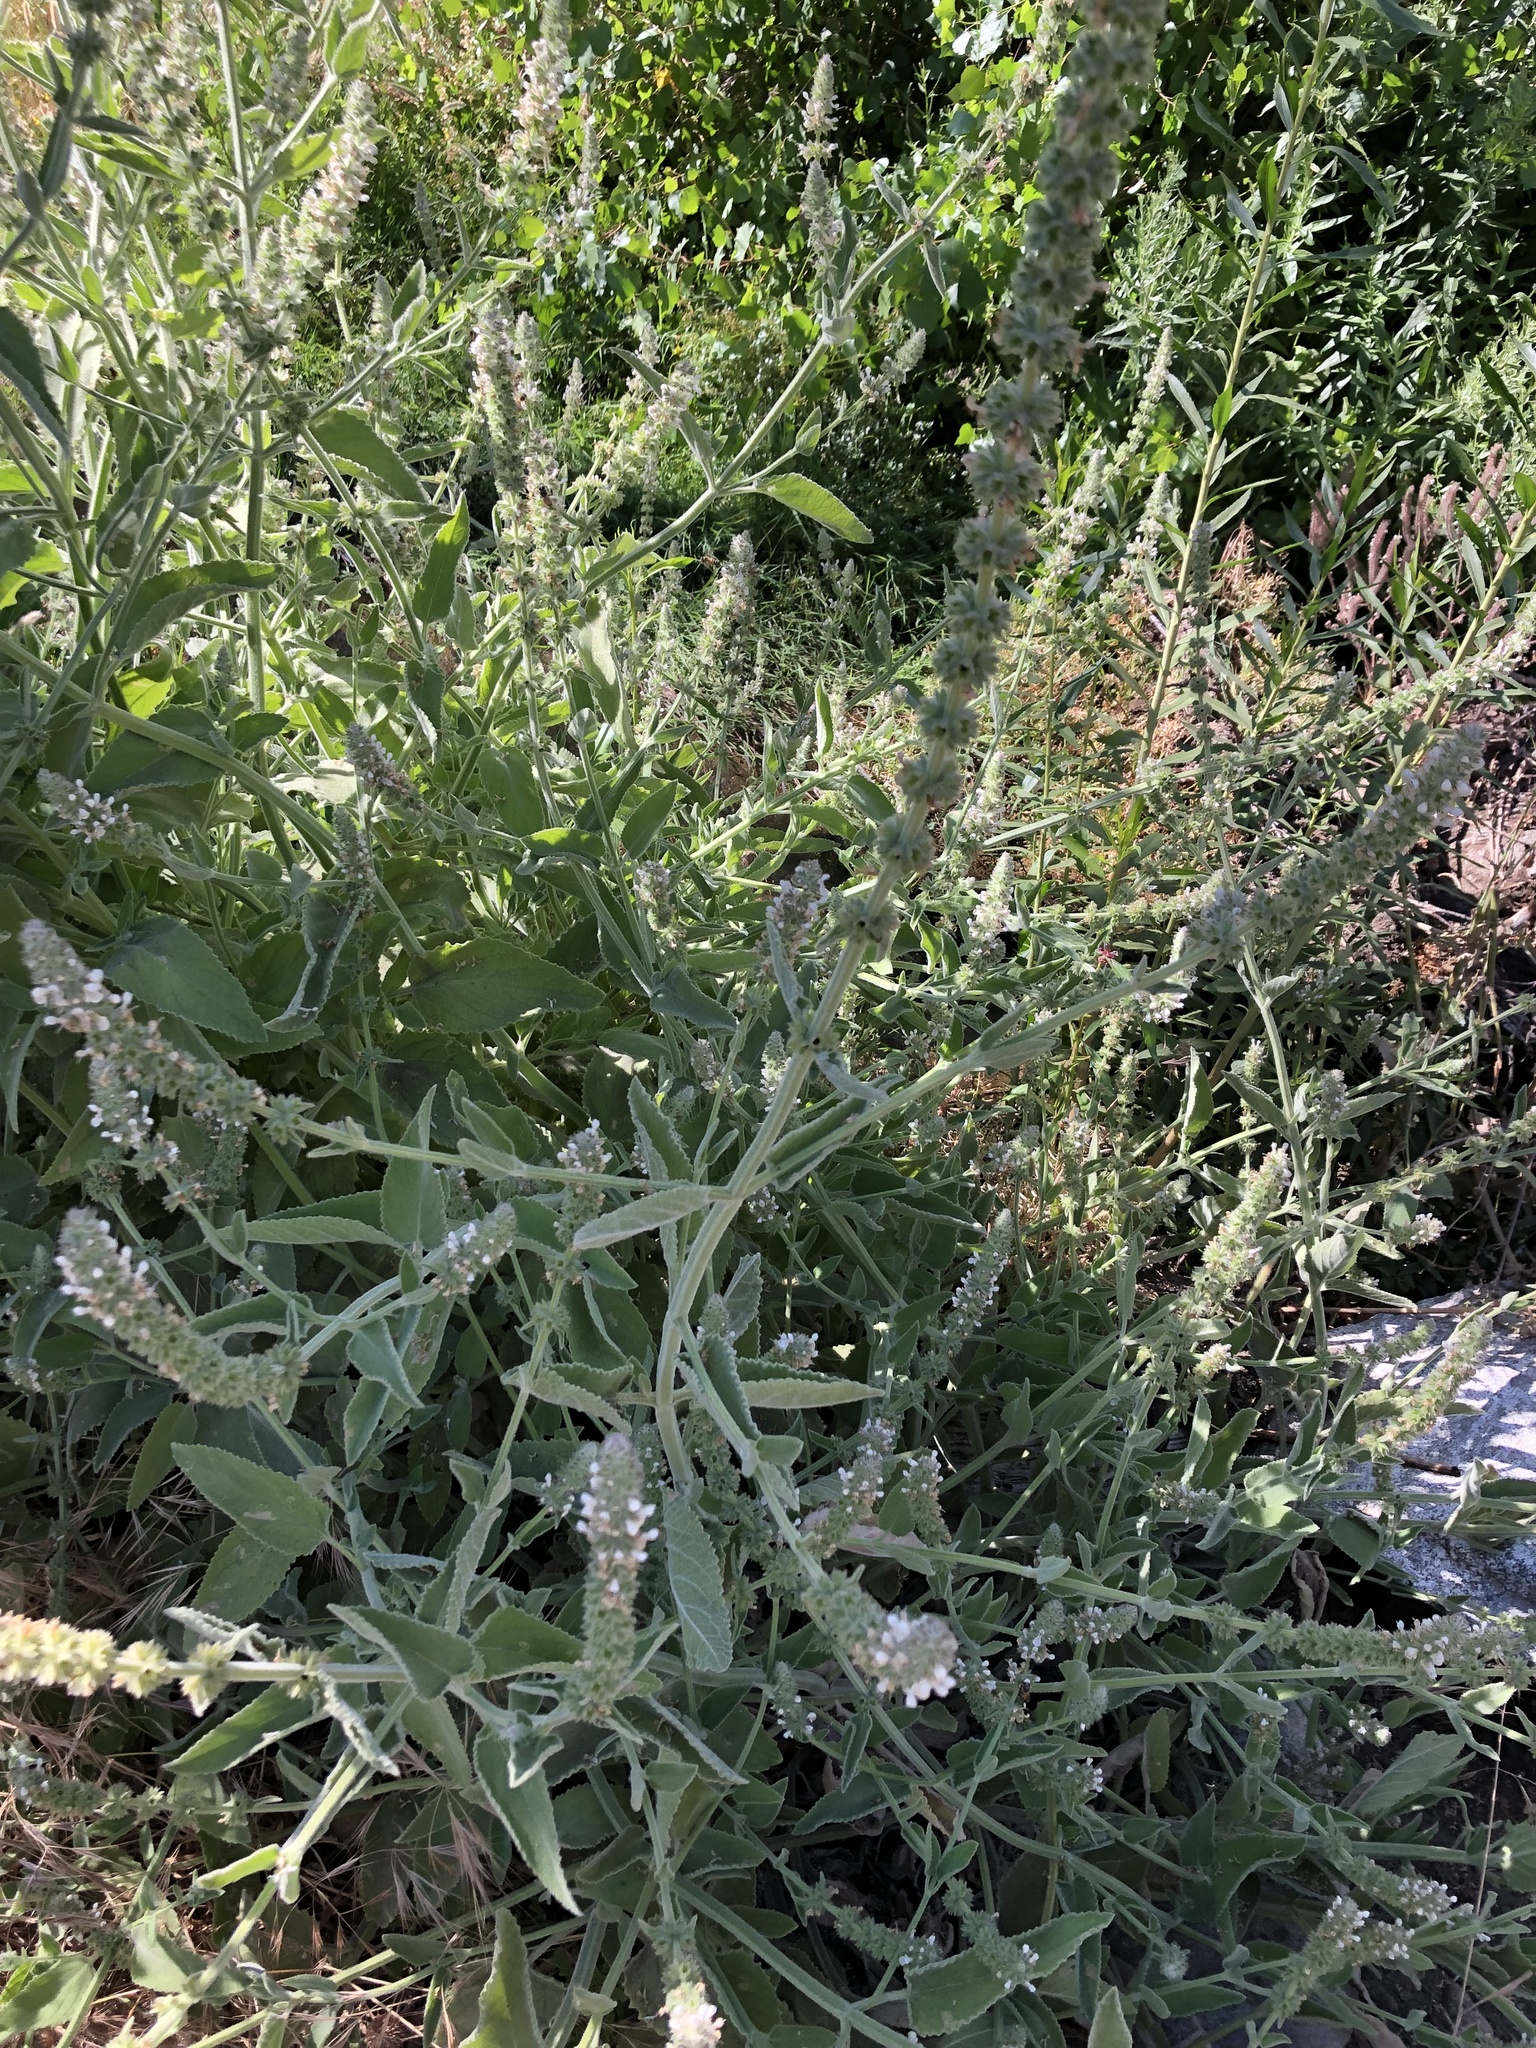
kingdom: Plantae
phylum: Tracheophyta
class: Magnoliopsida
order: Lamiales
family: Lamiaceae
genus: Stachys
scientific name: Stachys albens
